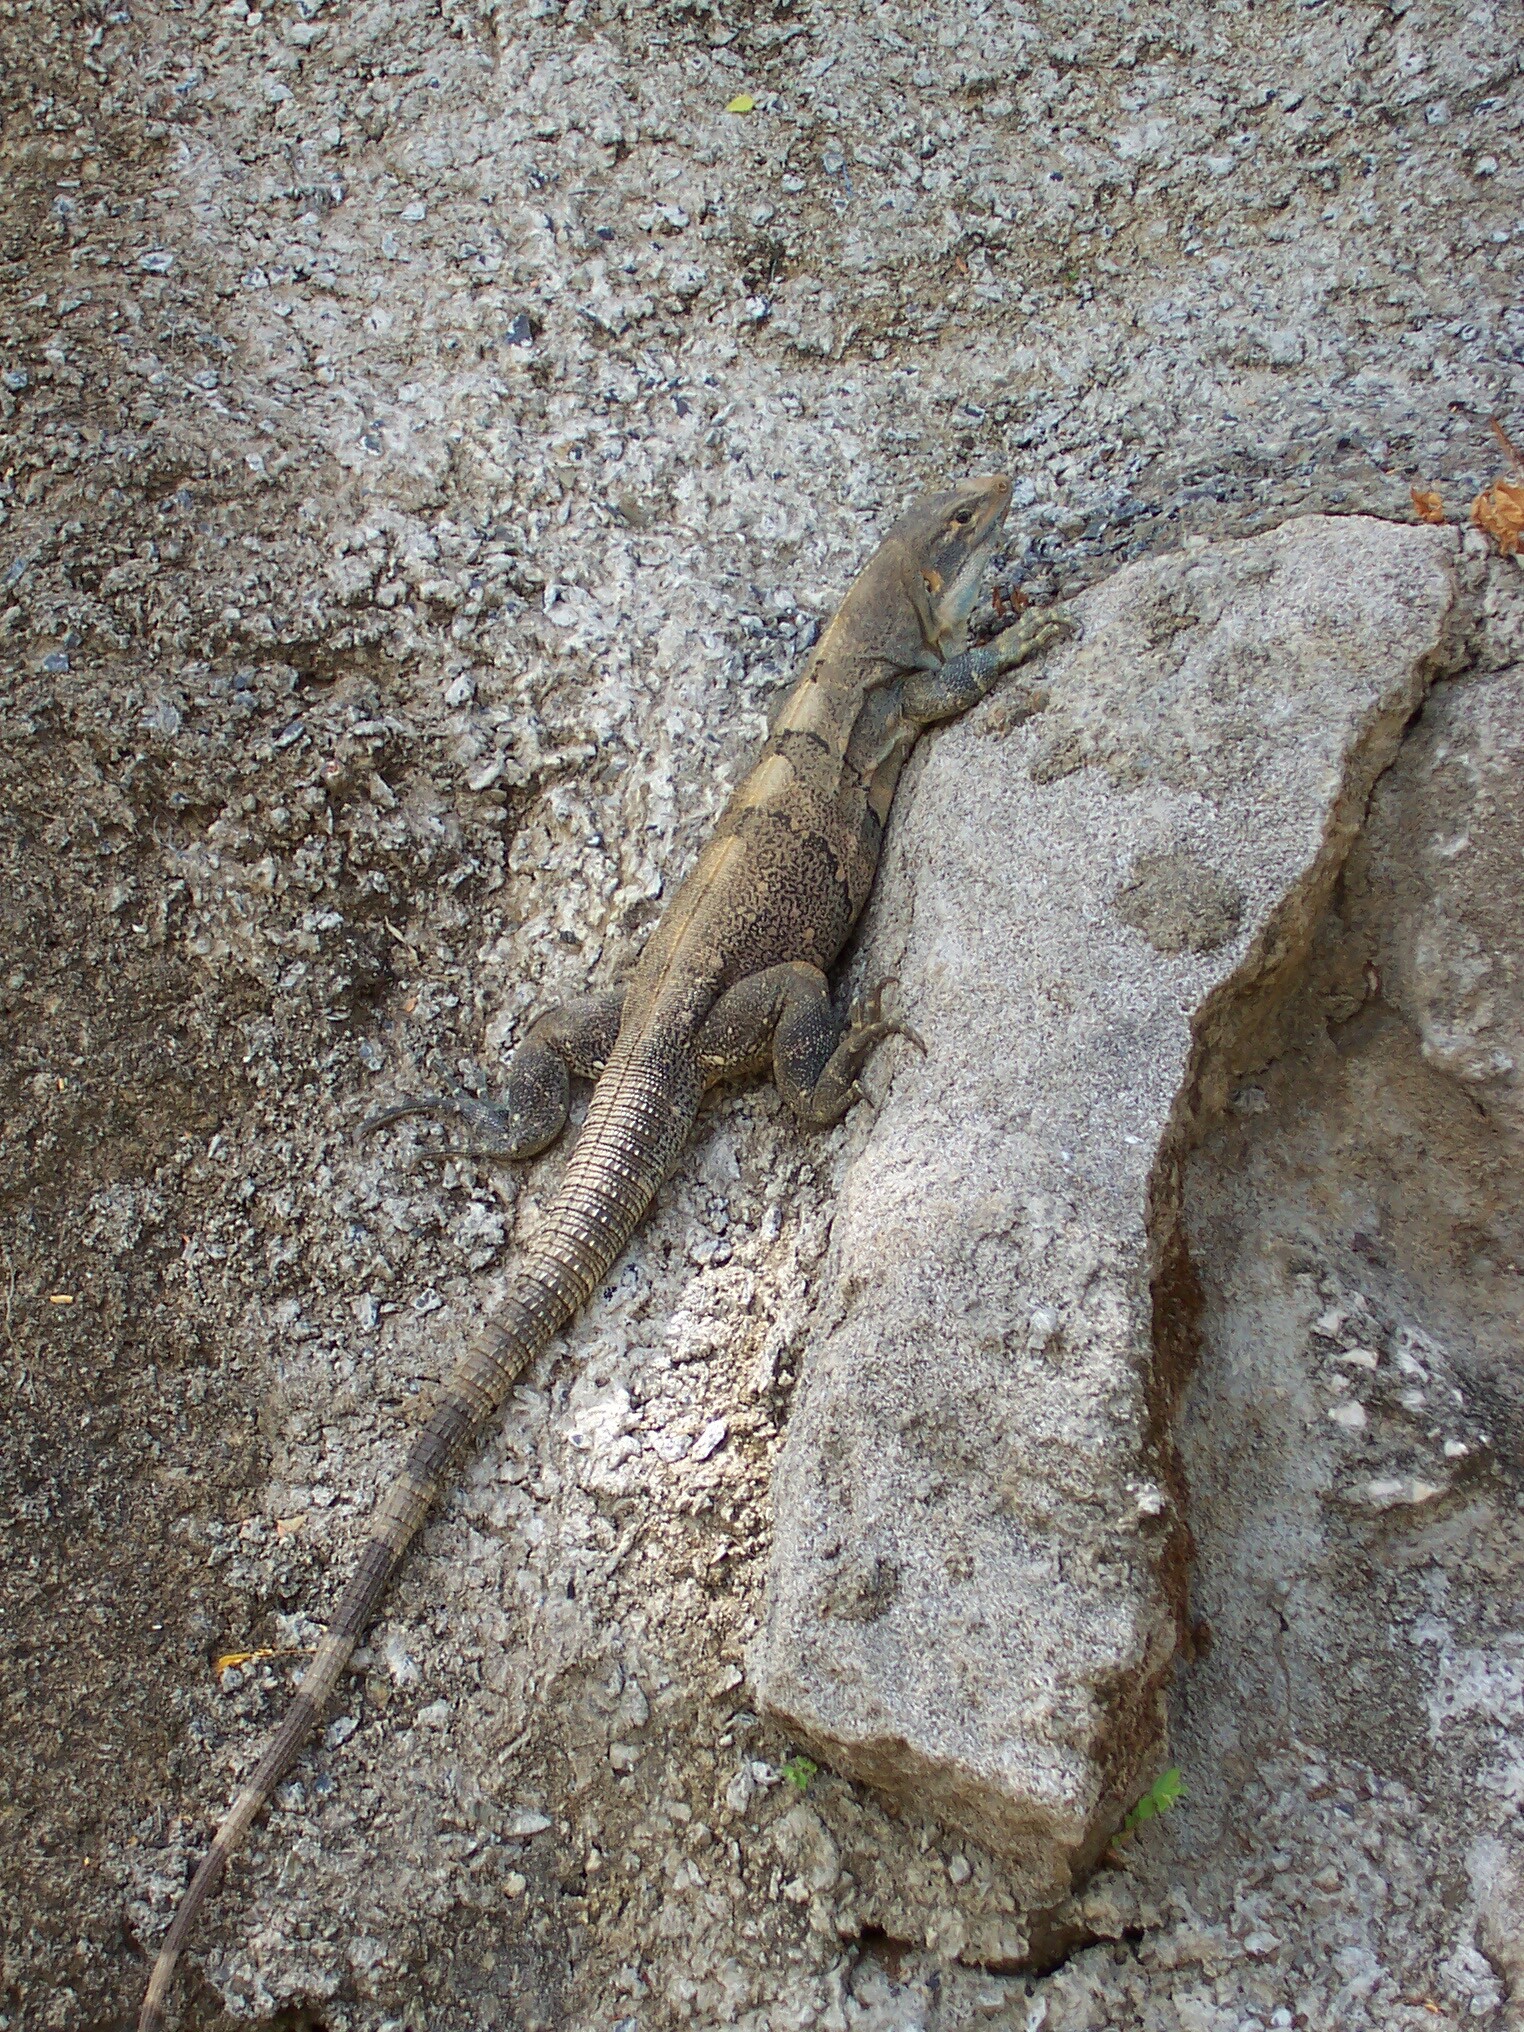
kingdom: Animalia
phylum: Chordata
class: Squamata
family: Iguanidae
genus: Ctenosaura
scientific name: Ctenosaura similis
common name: Black spiny-tailed iguana
